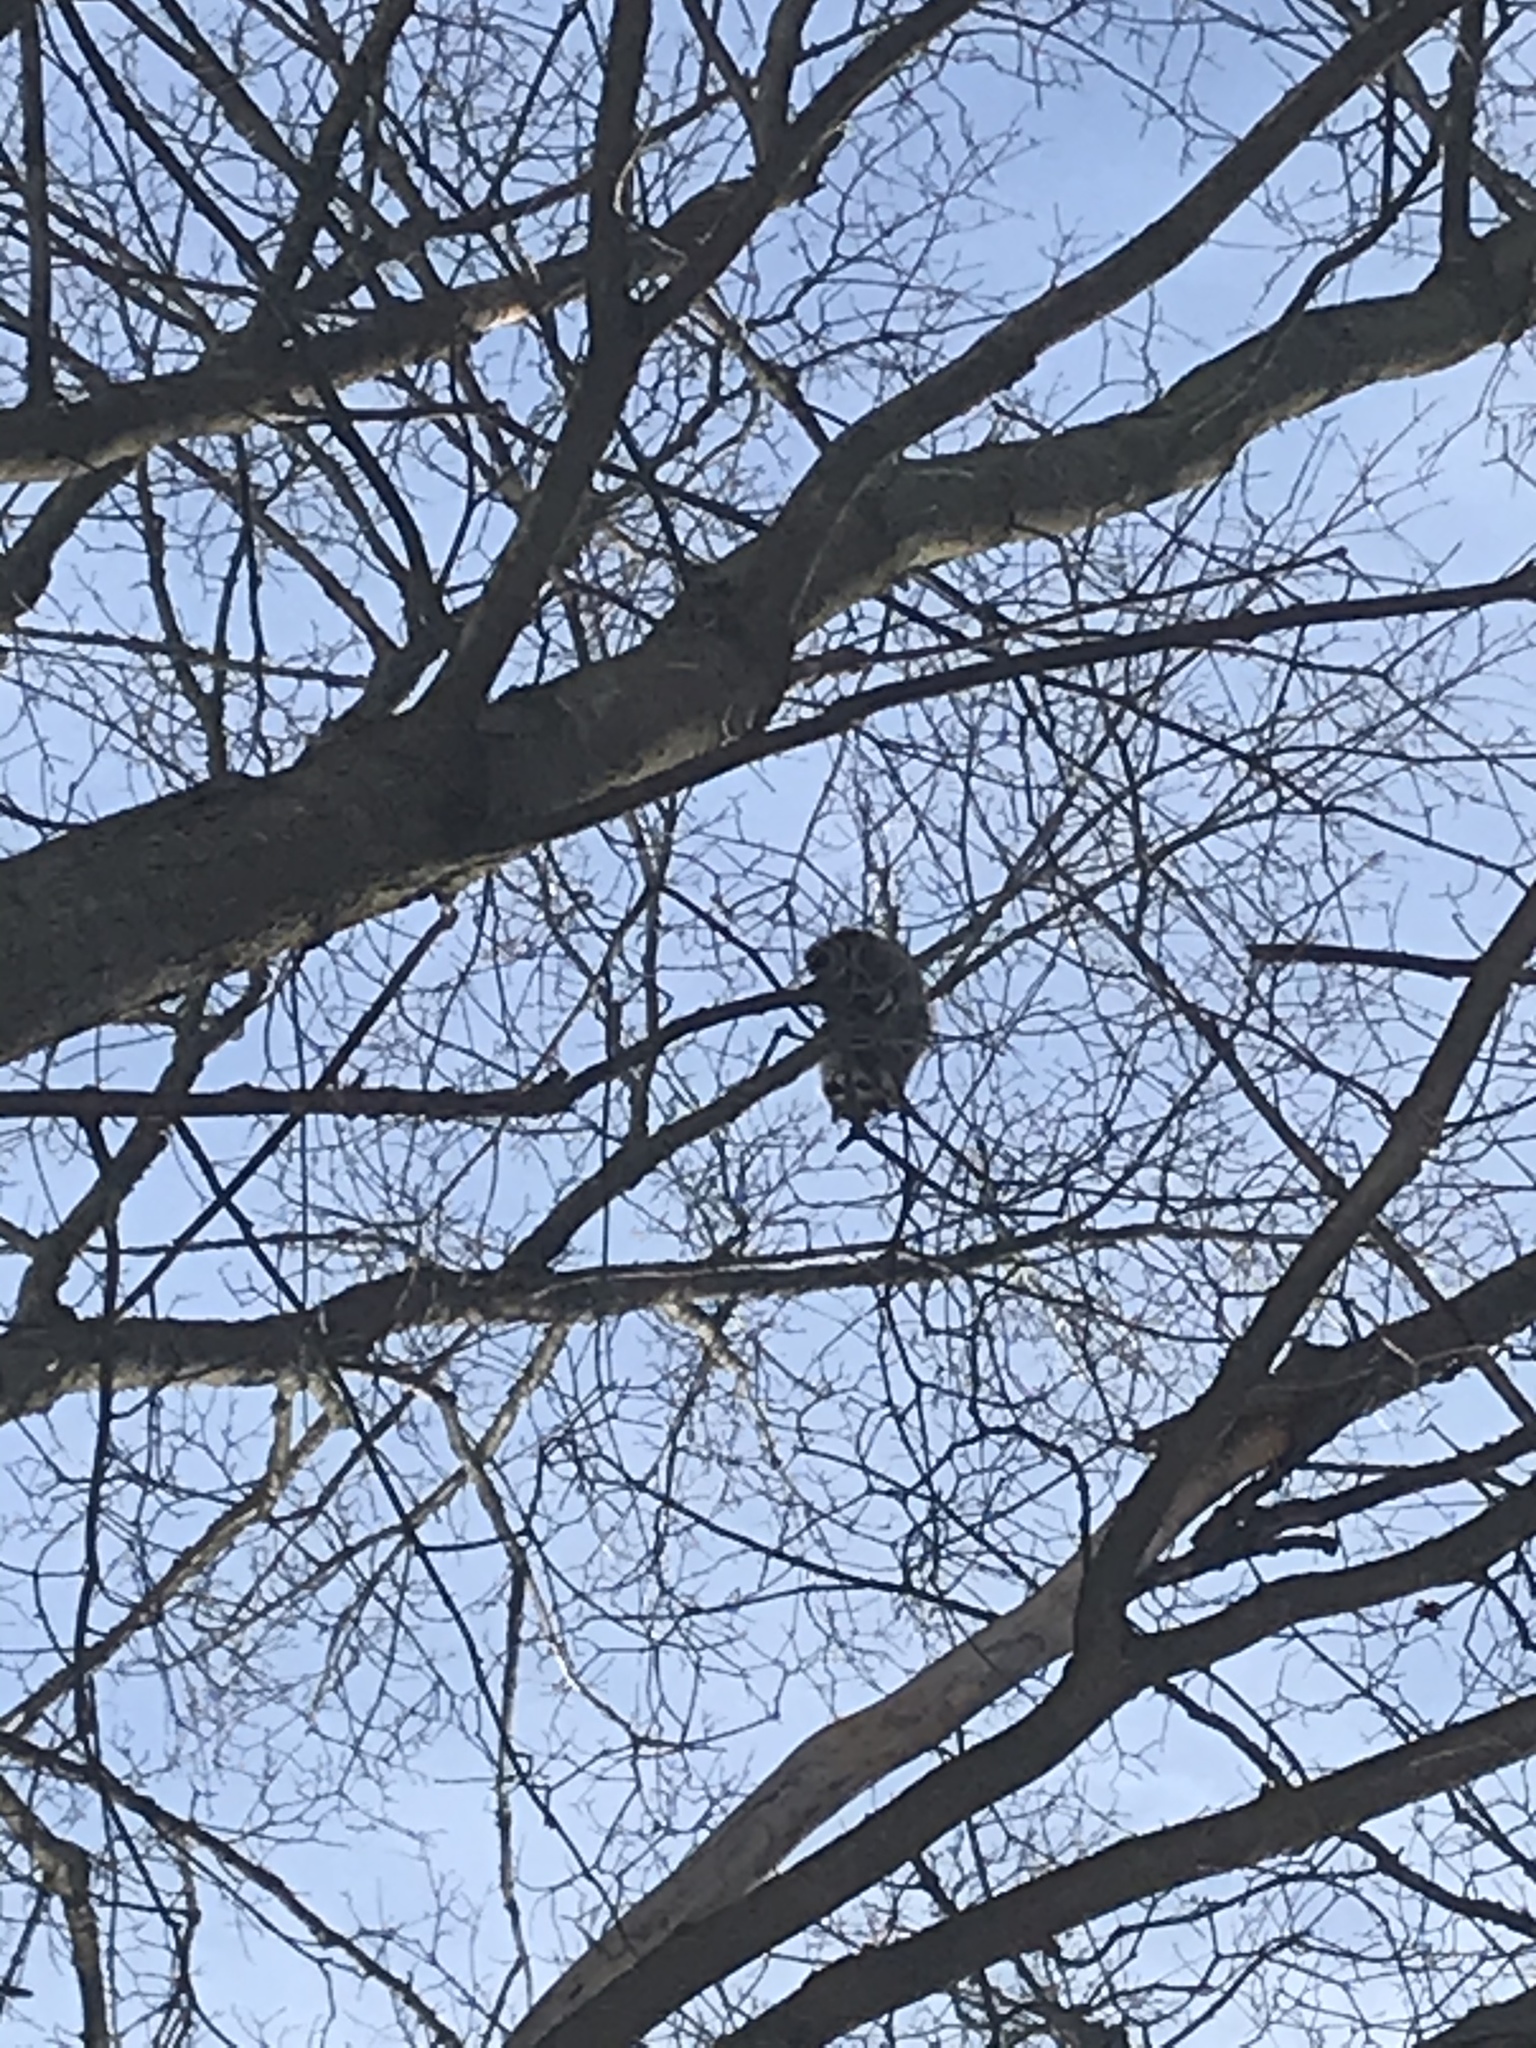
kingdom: Animalia
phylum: Chordata
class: Mammalia
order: Carnivora
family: Procyonidae
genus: Procyon
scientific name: Procyon lotor
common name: Raccoon
